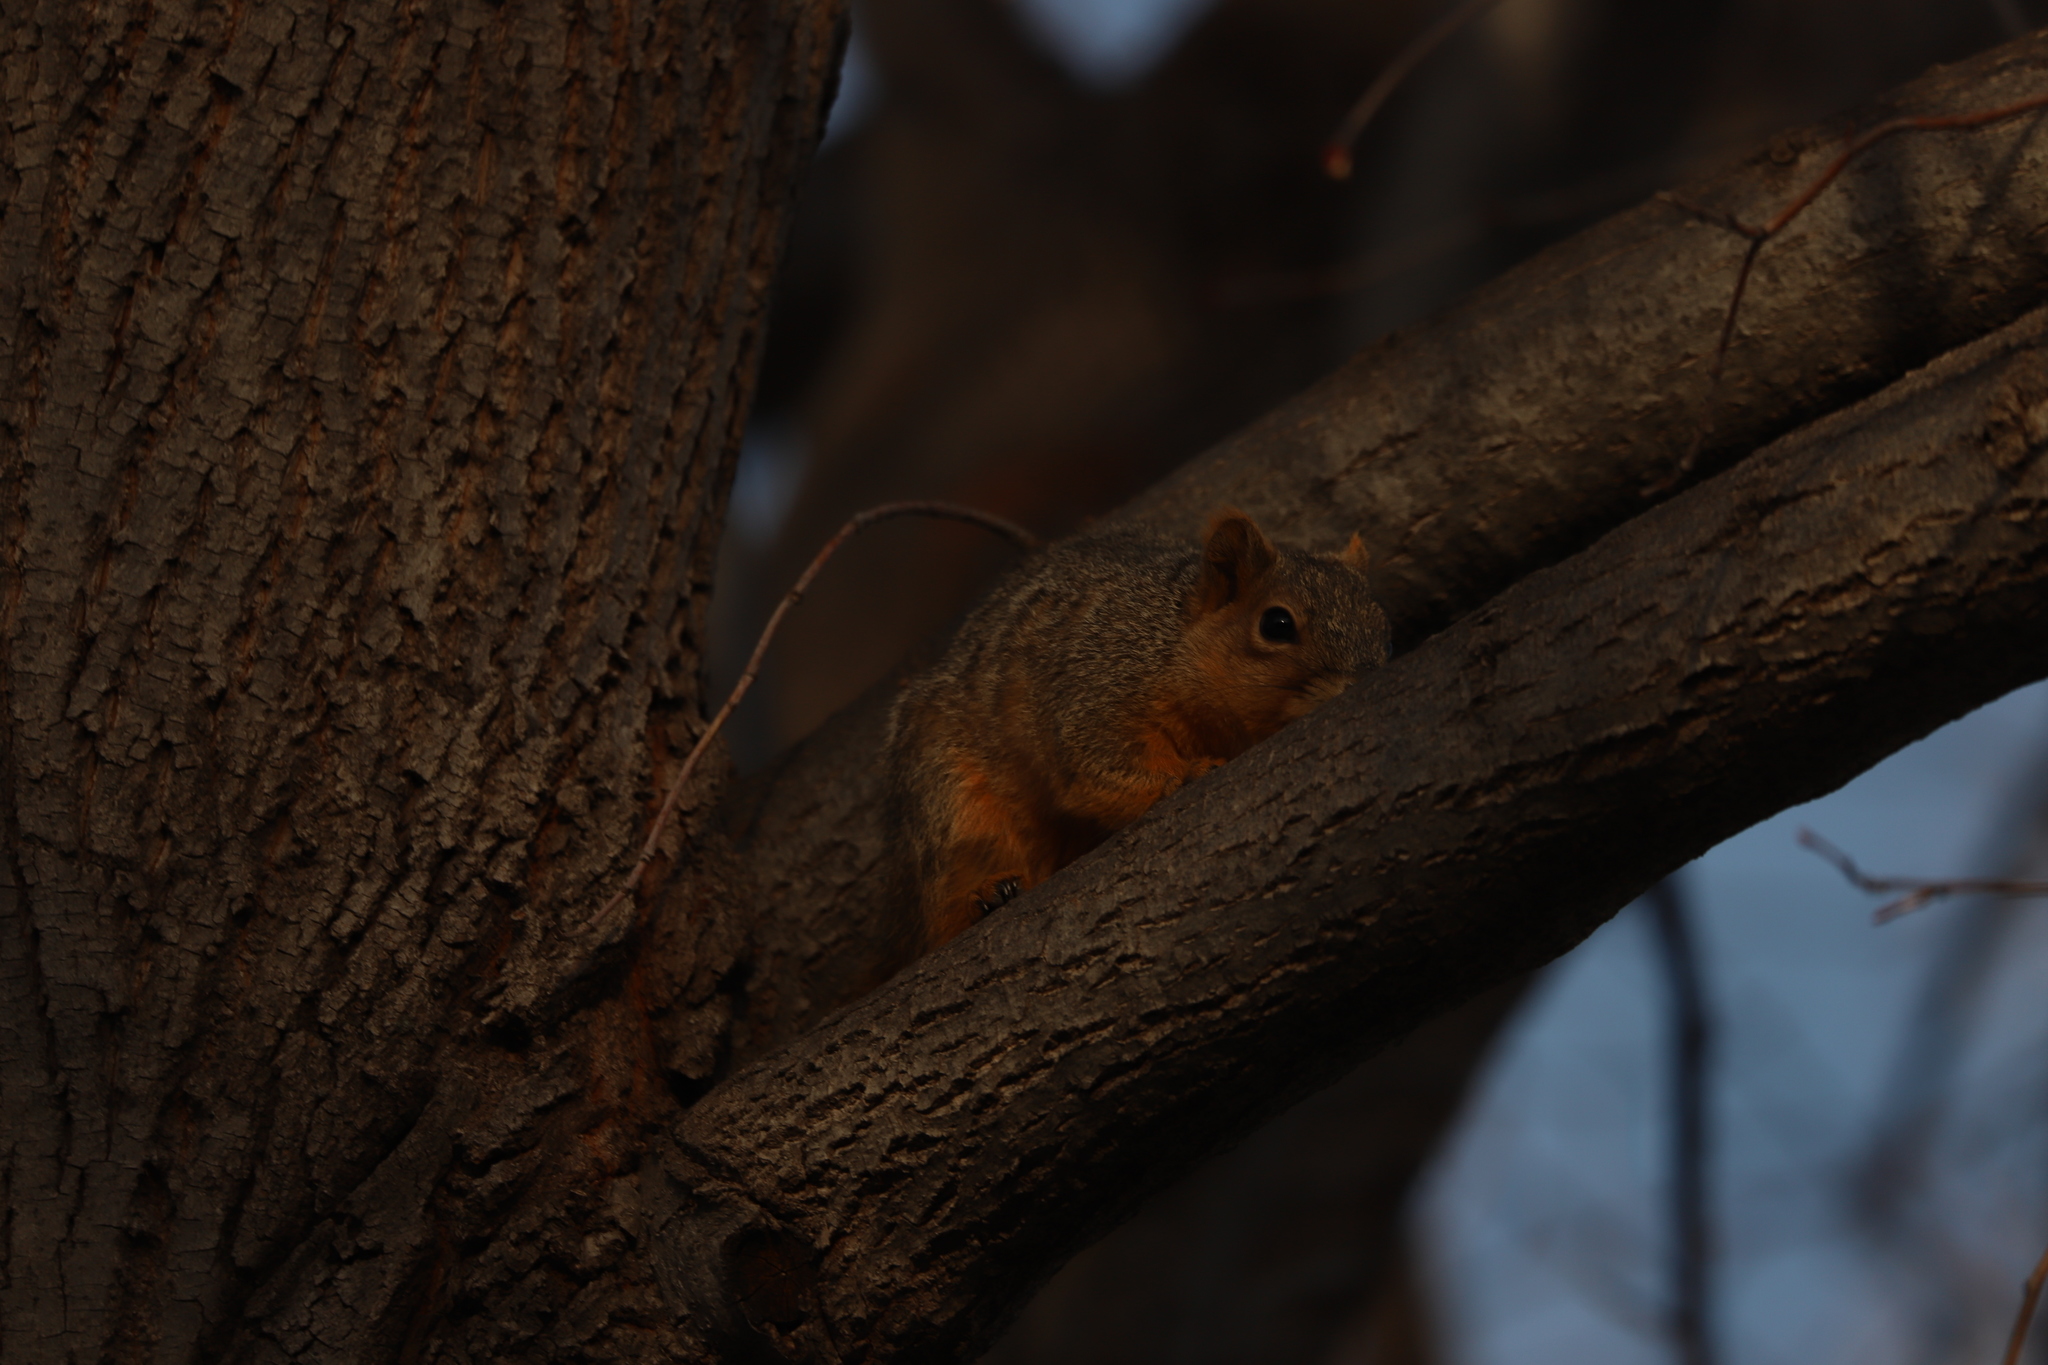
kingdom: Animalia
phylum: Chordata
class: Mammalia
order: Rodentia
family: Sciuridae
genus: Sciurus
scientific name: Sciurus niger
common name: Fox squirrel
